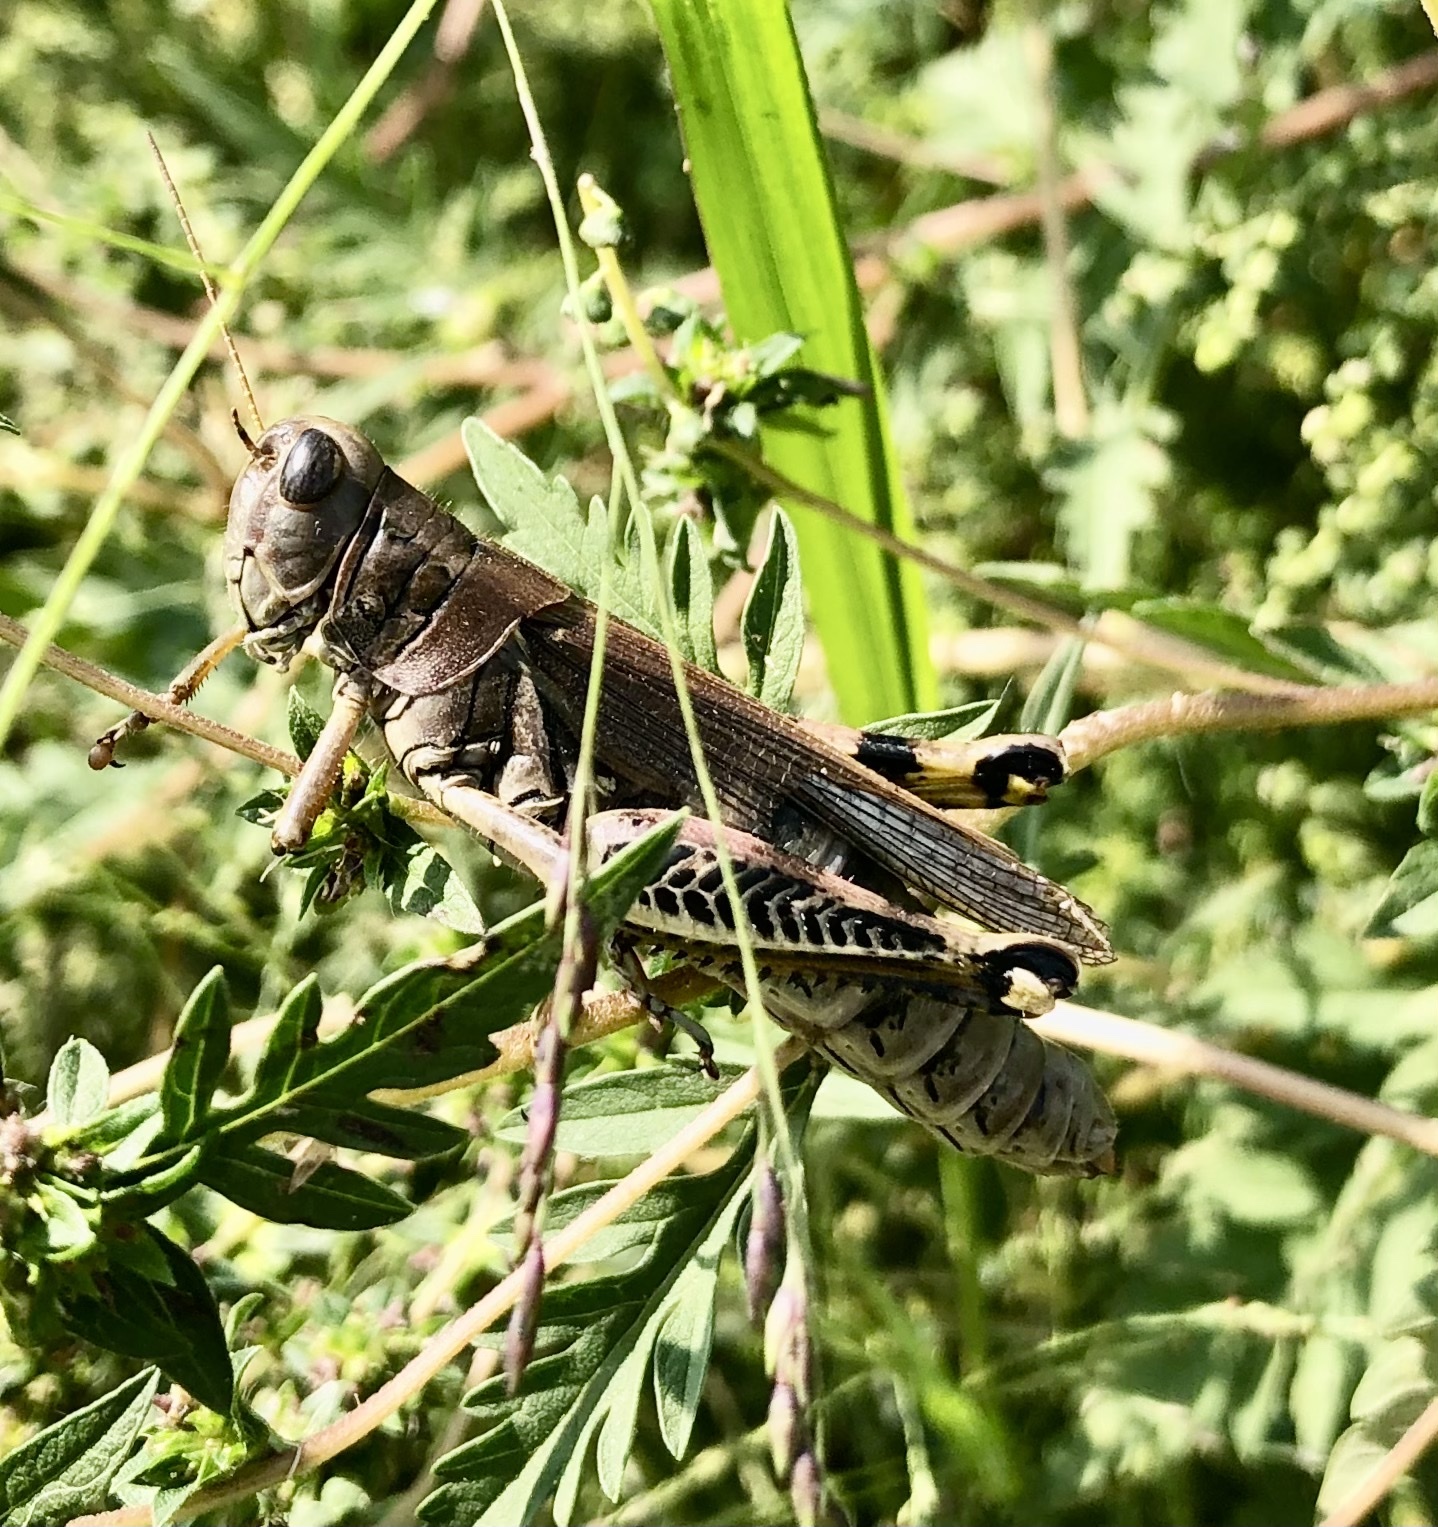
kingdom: Animalia
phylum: Arthropoda
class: Insecta
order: Orthoptera
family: Acrididae
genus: Melanoplus
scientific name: Melanoplus differentialis
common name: Differential grasshopper
